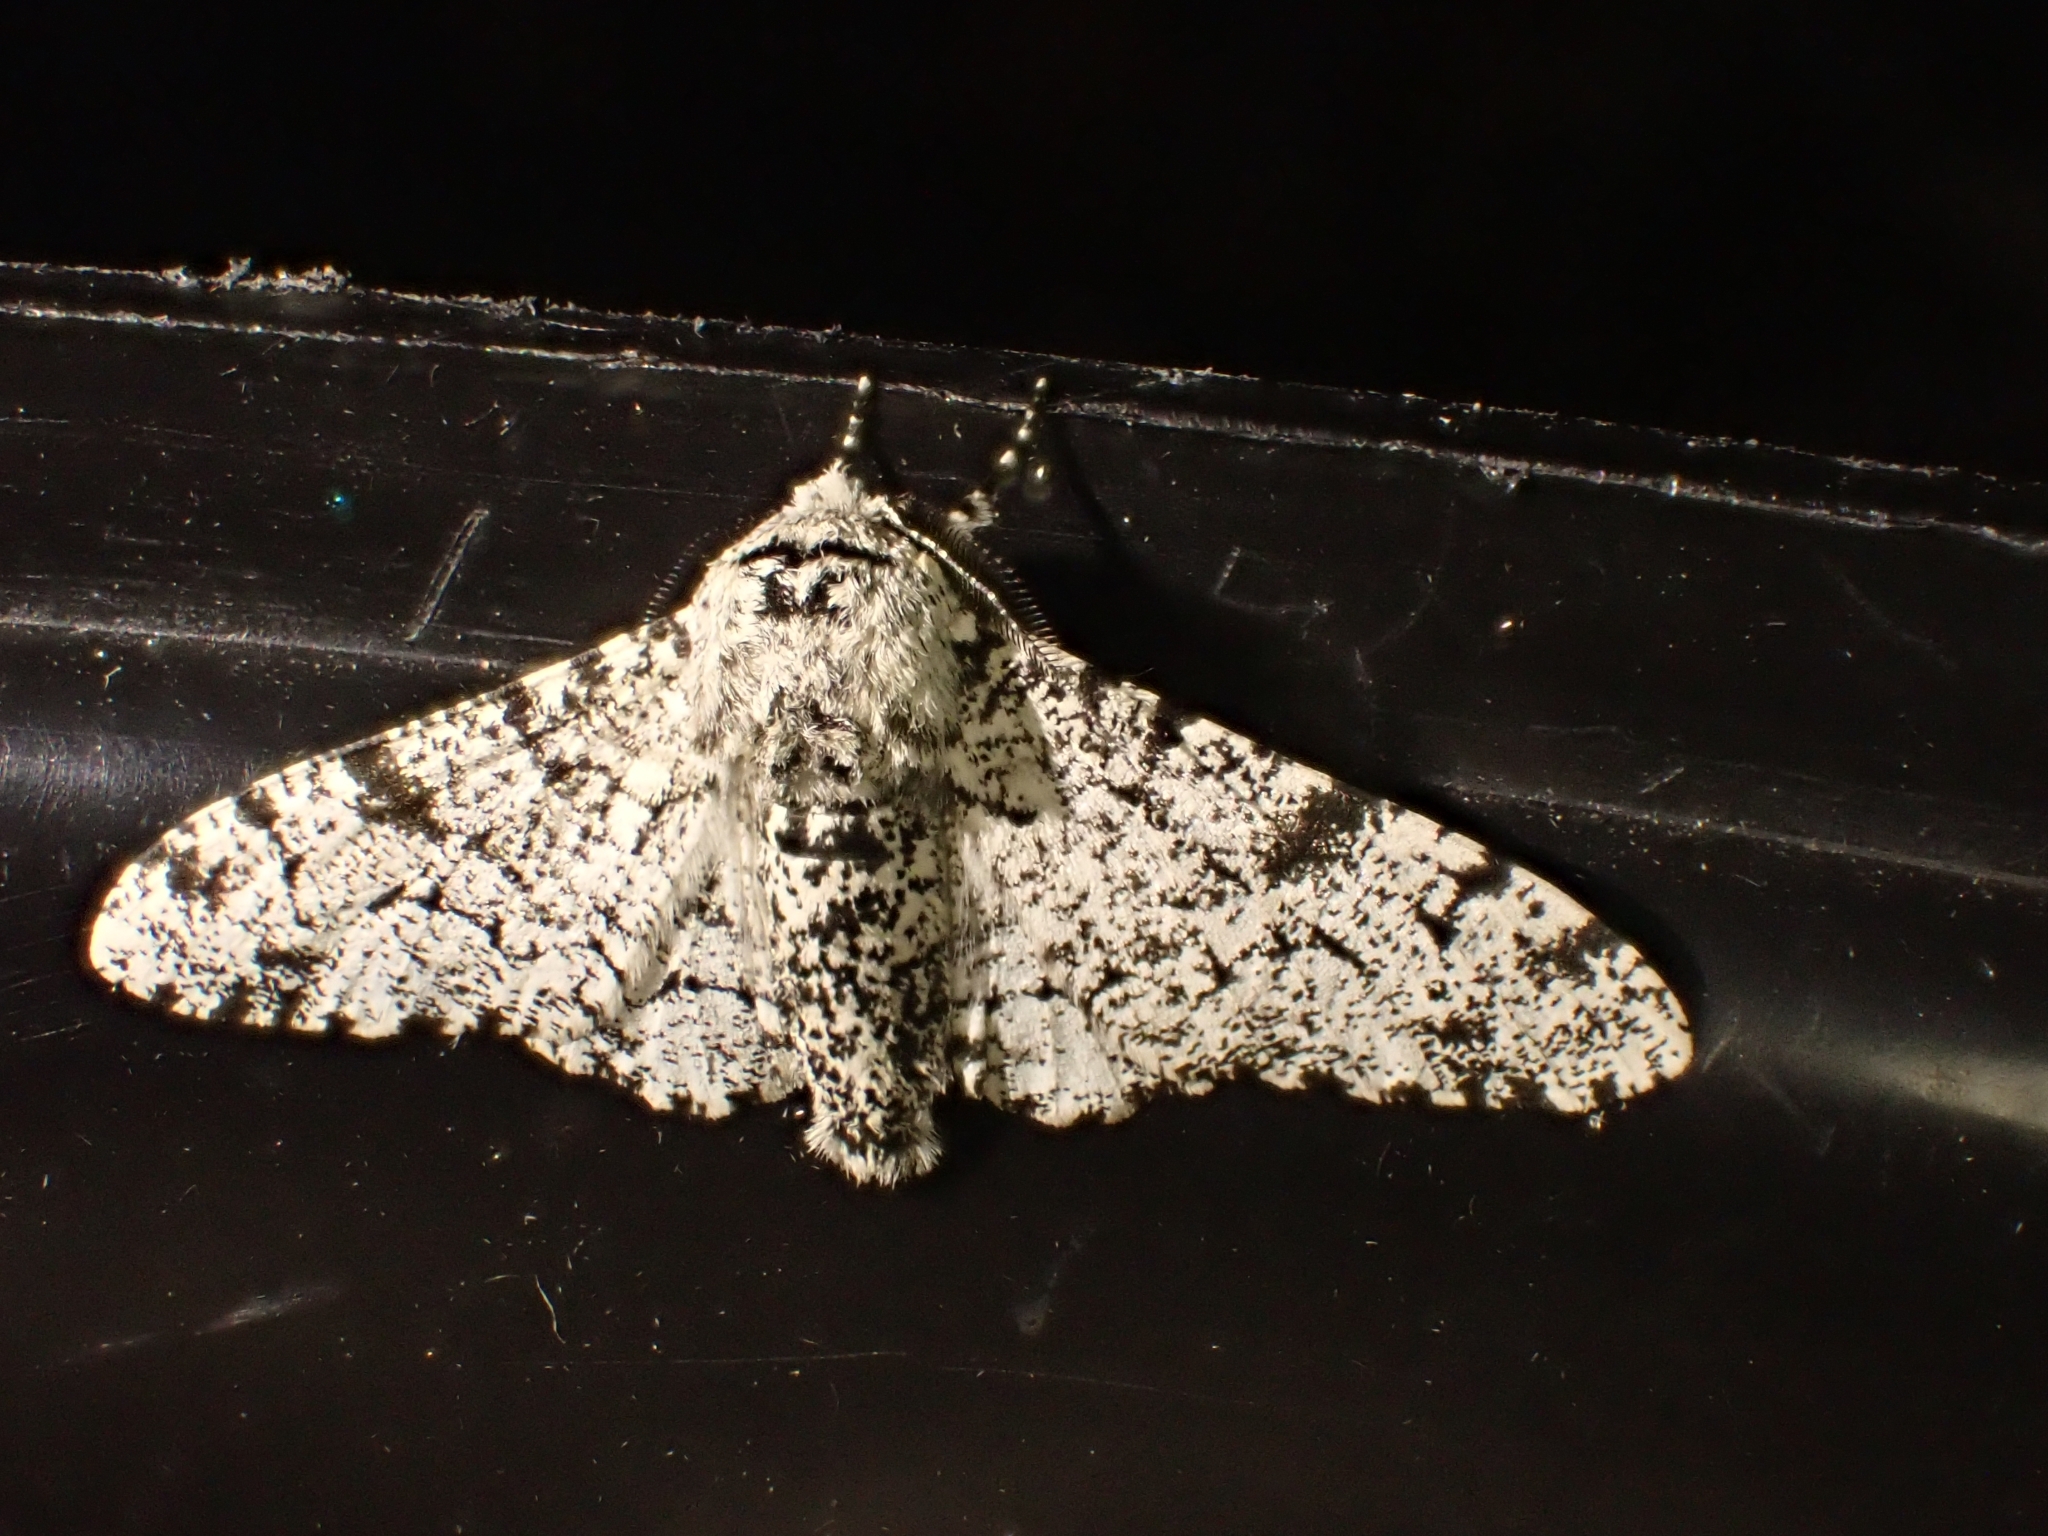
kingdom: Animalia
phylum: Arthropoda
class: Insecta
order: Lepidoptera
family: Geometridae
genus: Biston
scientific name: Biston betularia
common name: Peppered moth
